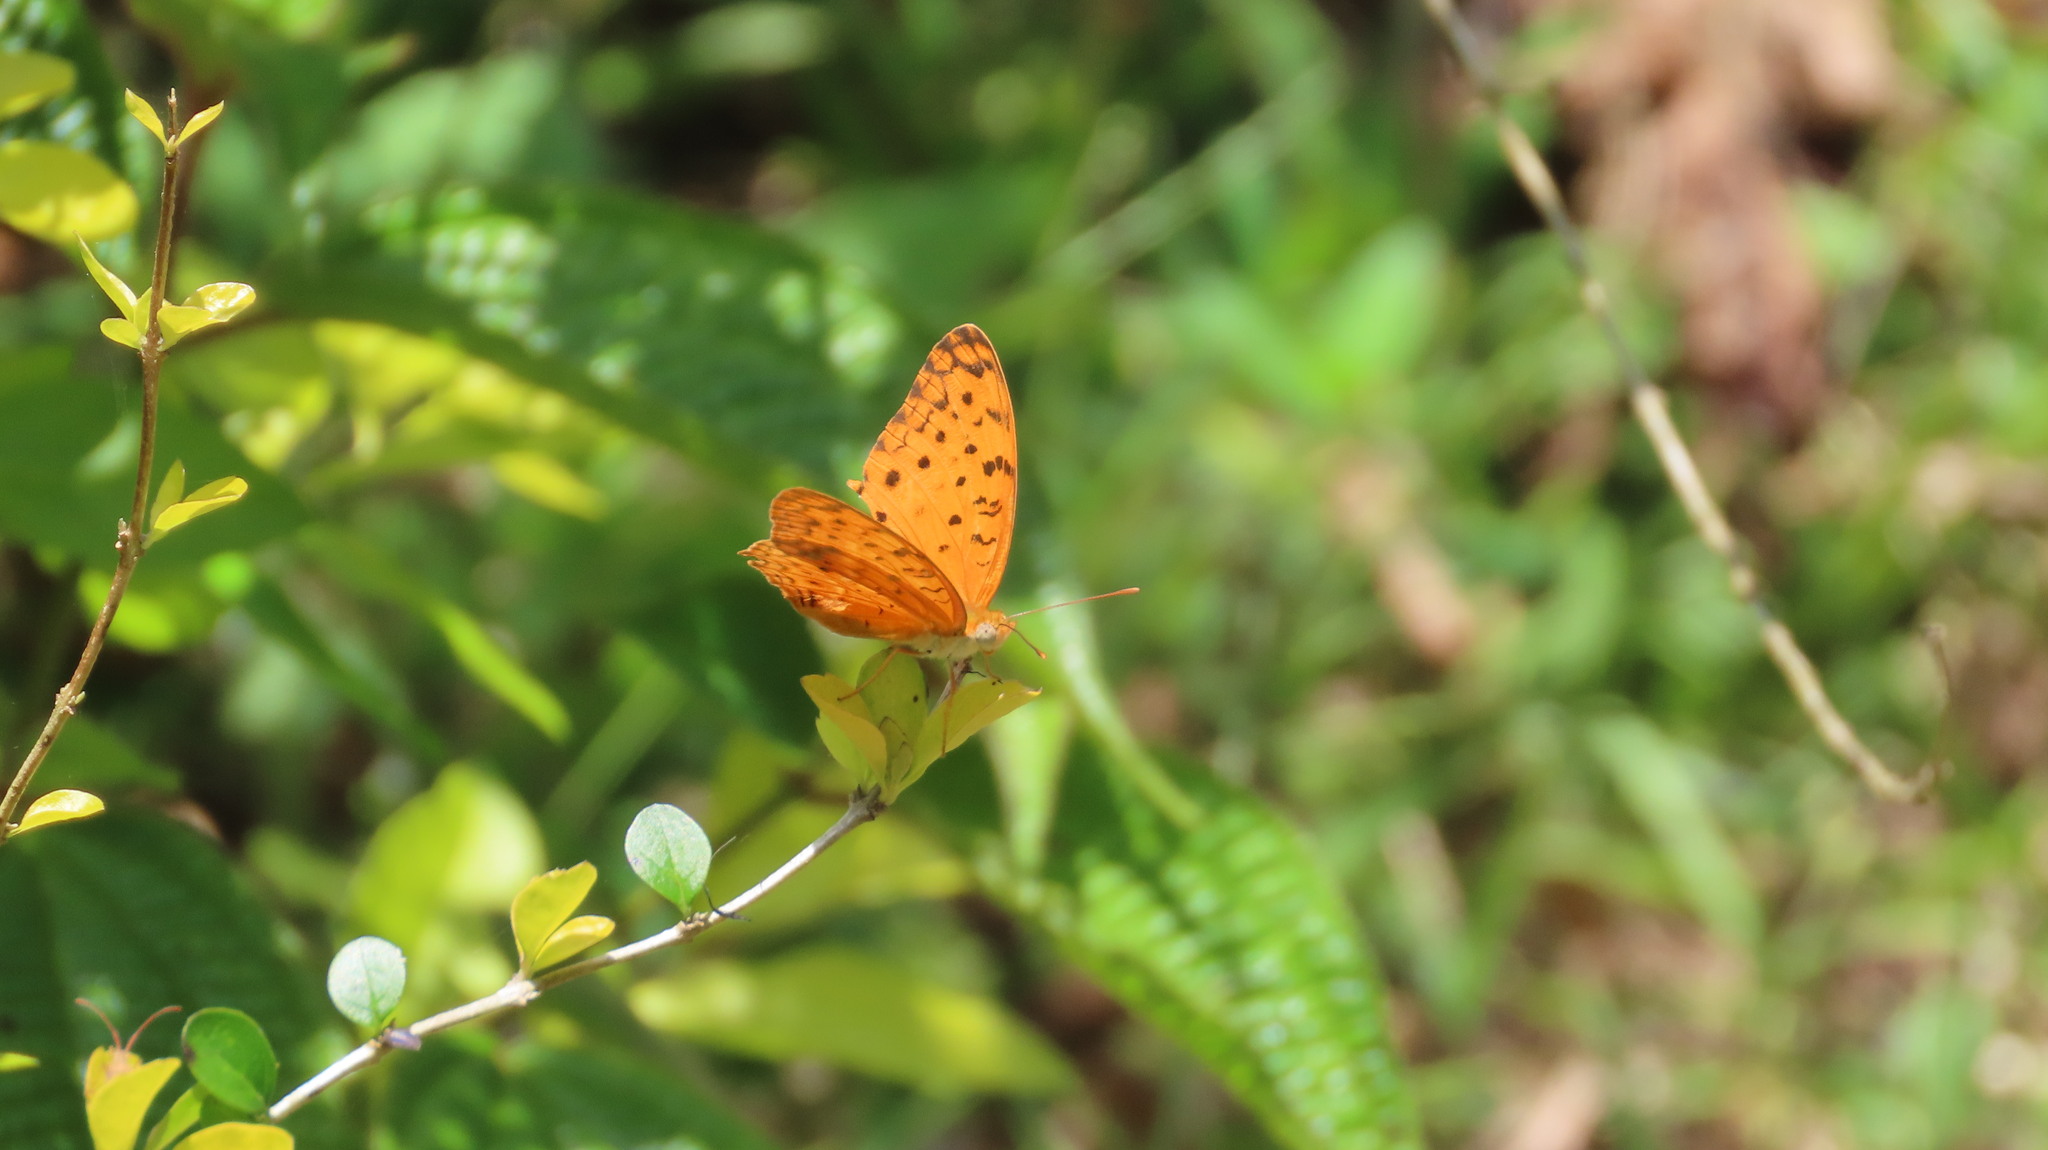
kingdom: Animalia
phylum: Arthropoda
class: Insecta
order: Lepidoptera
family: Nymphalidae
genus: Phalanta
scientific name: Phalanta phalantha
